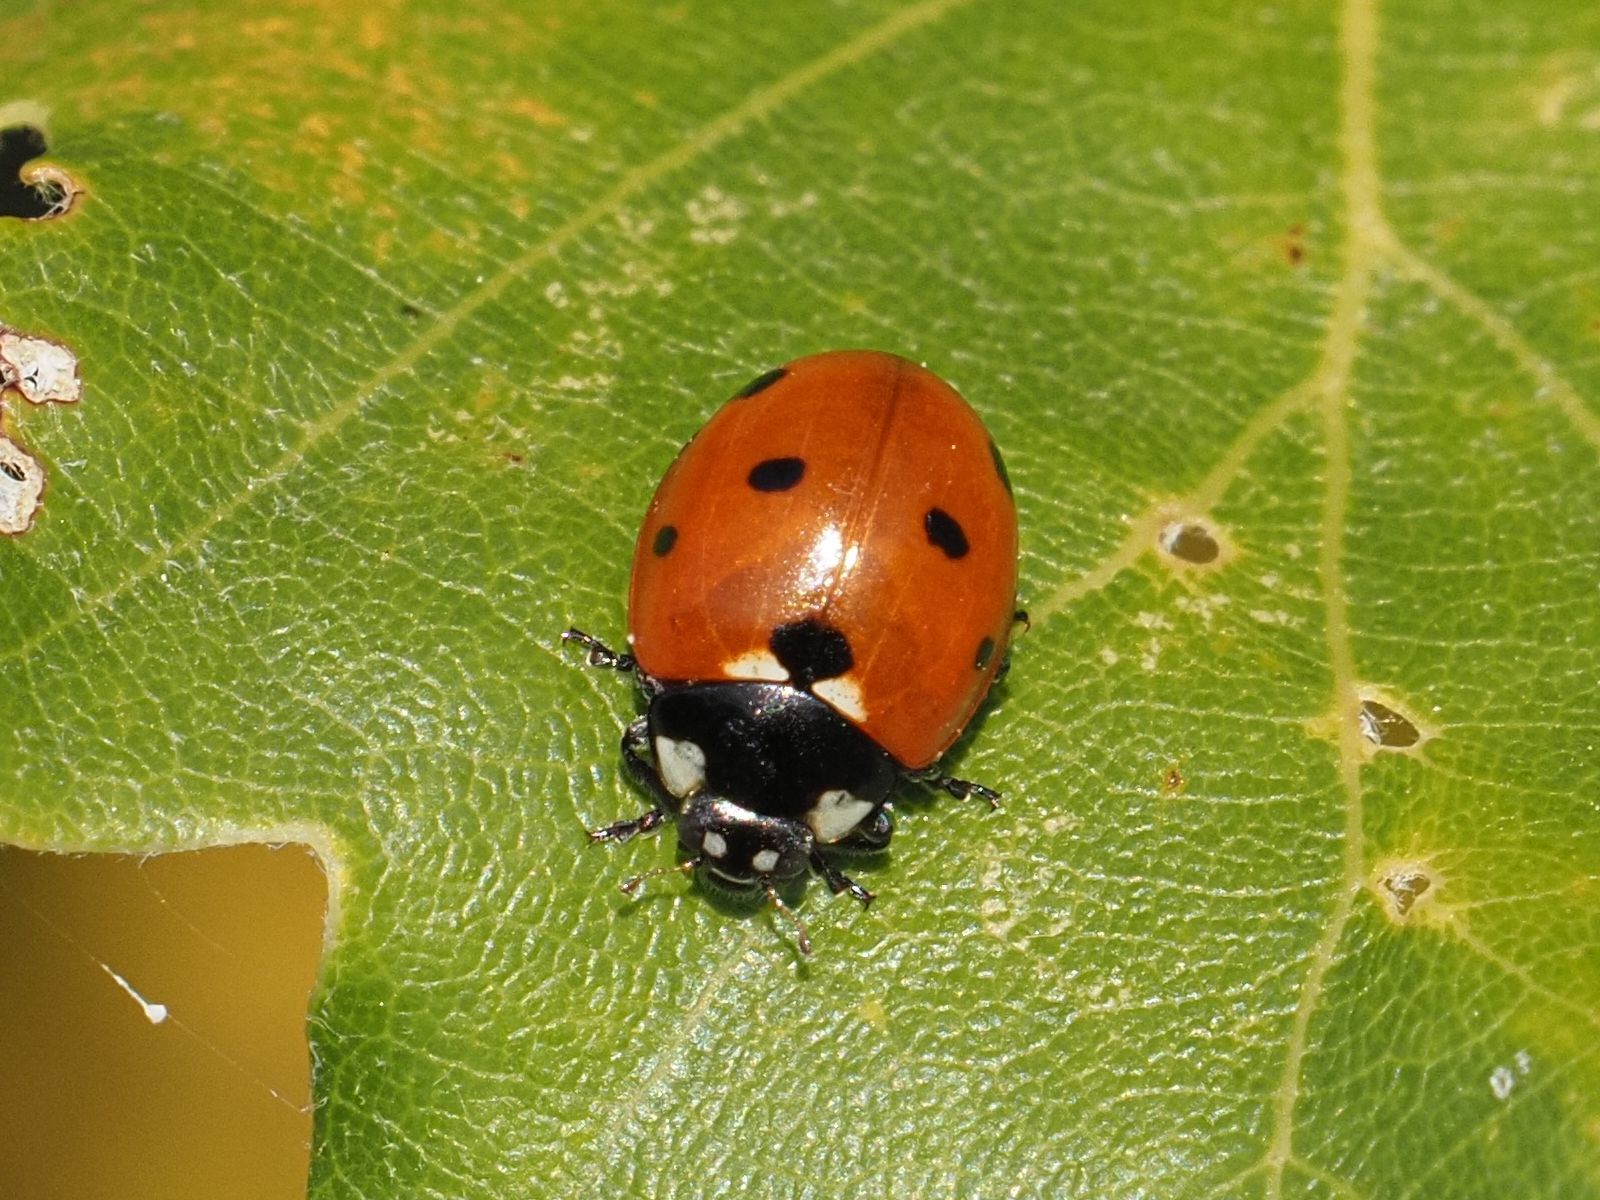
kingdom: Animalia
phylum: Arthropoda
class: Insecta
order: Coleoptera
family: Coccinellidae
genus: Coccinella
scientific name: Coccinella septempunctata
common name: Sevenspotted lady beetle
